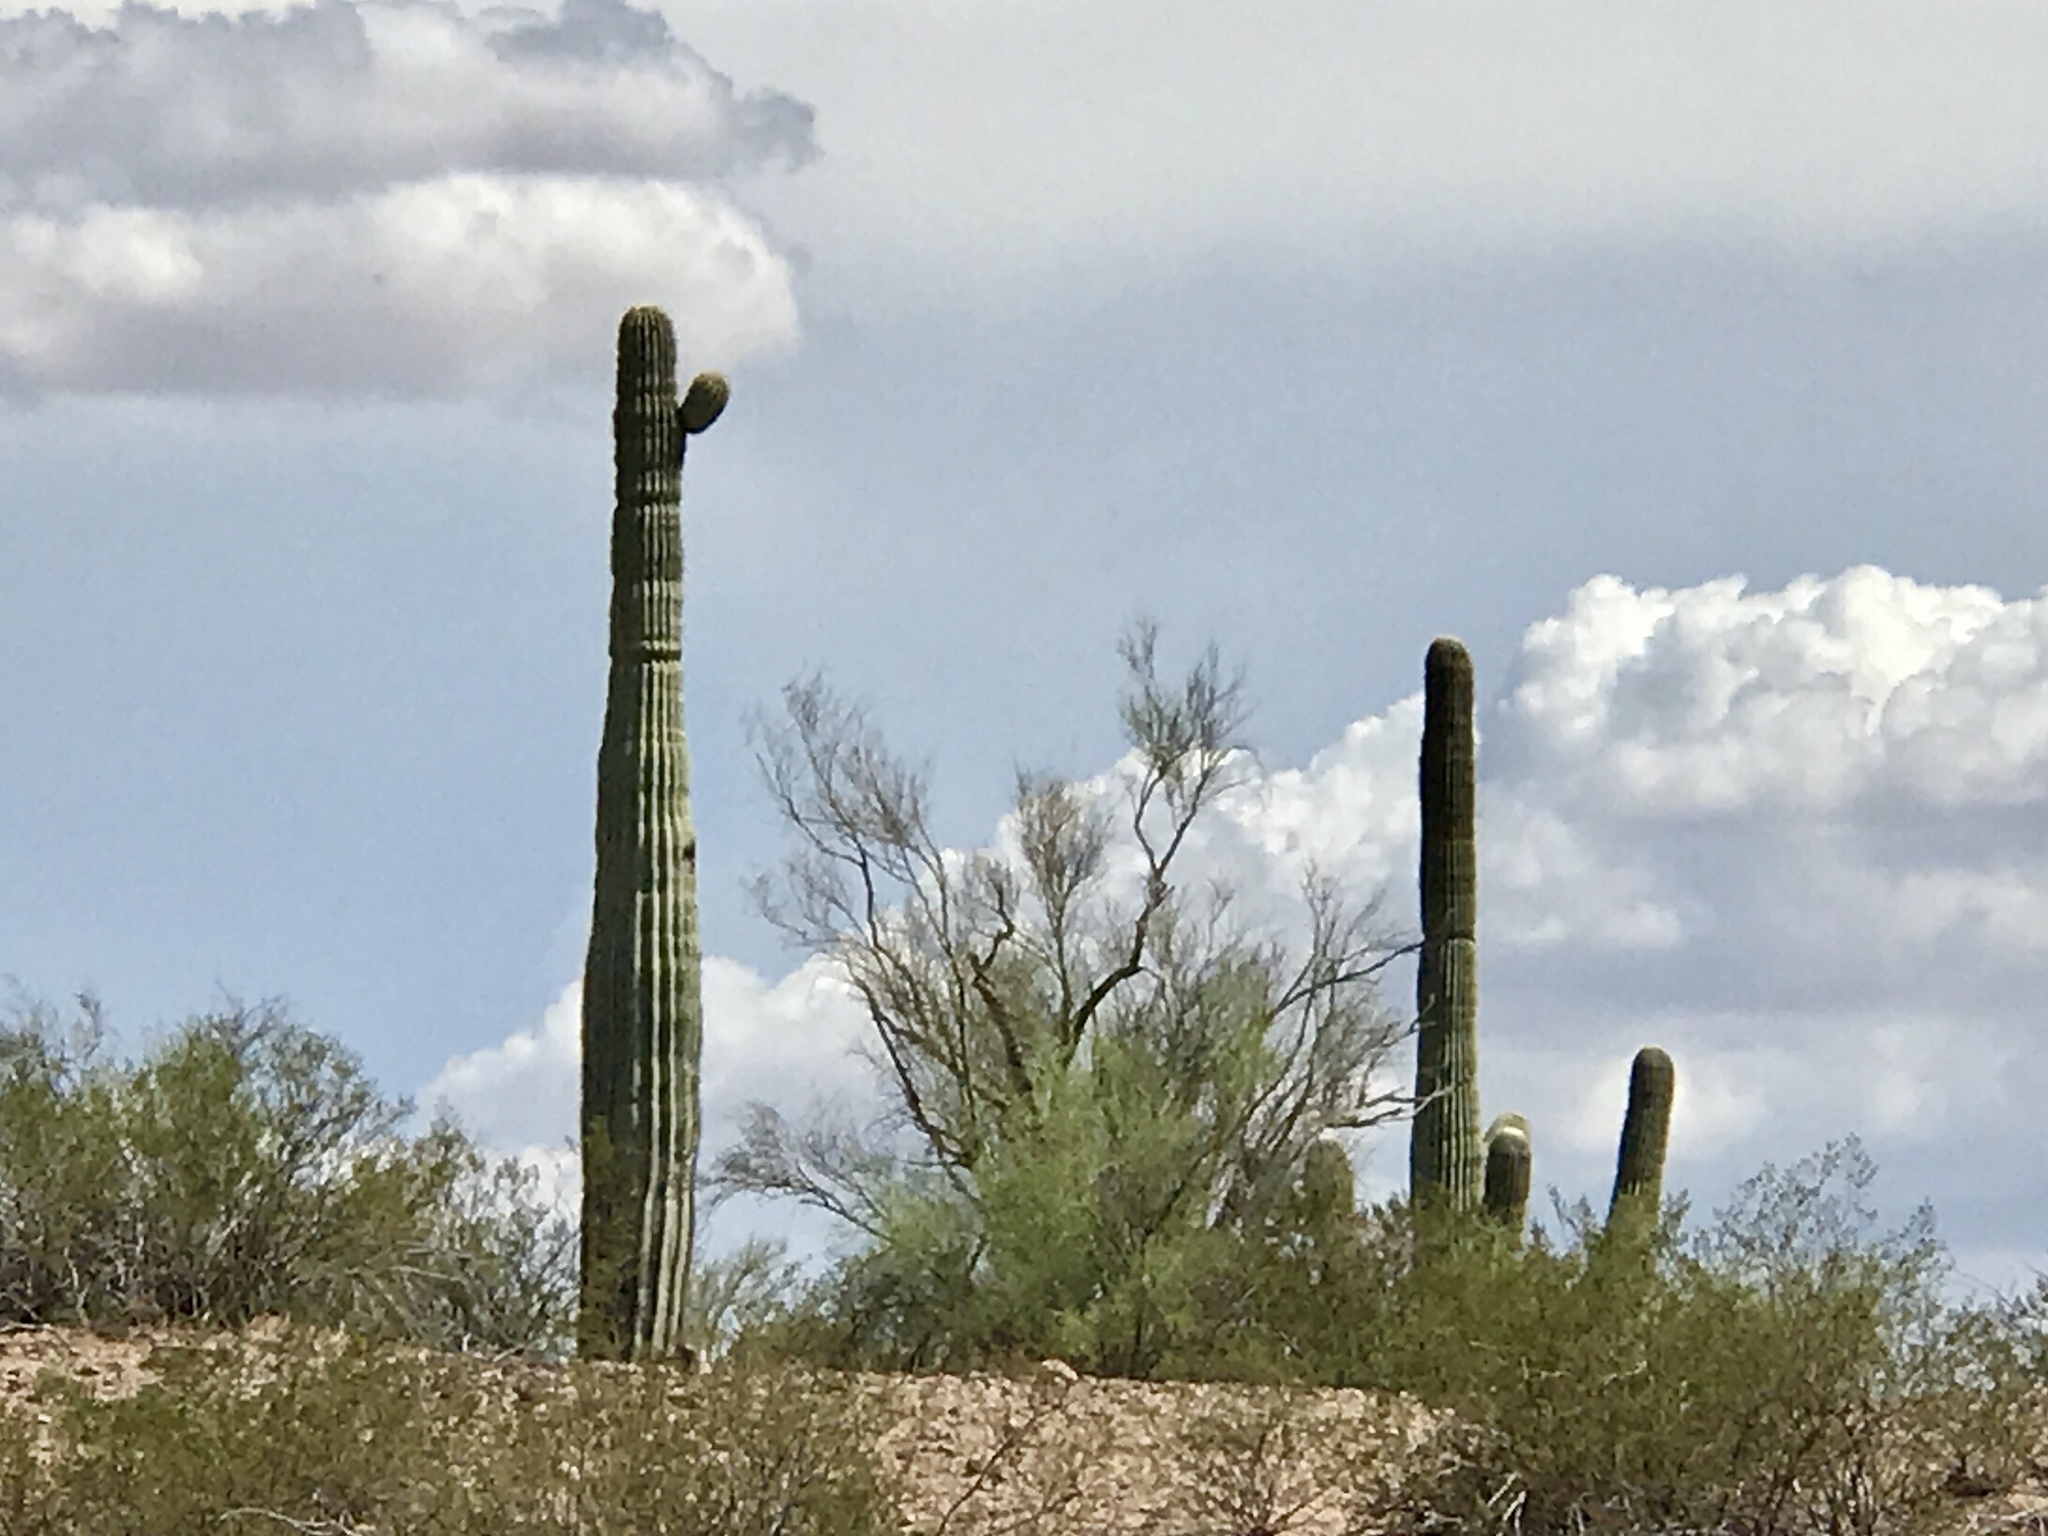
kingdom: Plantae
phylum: Tracheophyta
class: Magnoliopsida
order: Caryophyllales
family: Cactaceae
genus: Carnegiea
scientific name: Carnegiea gigantea
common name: Saguaro
